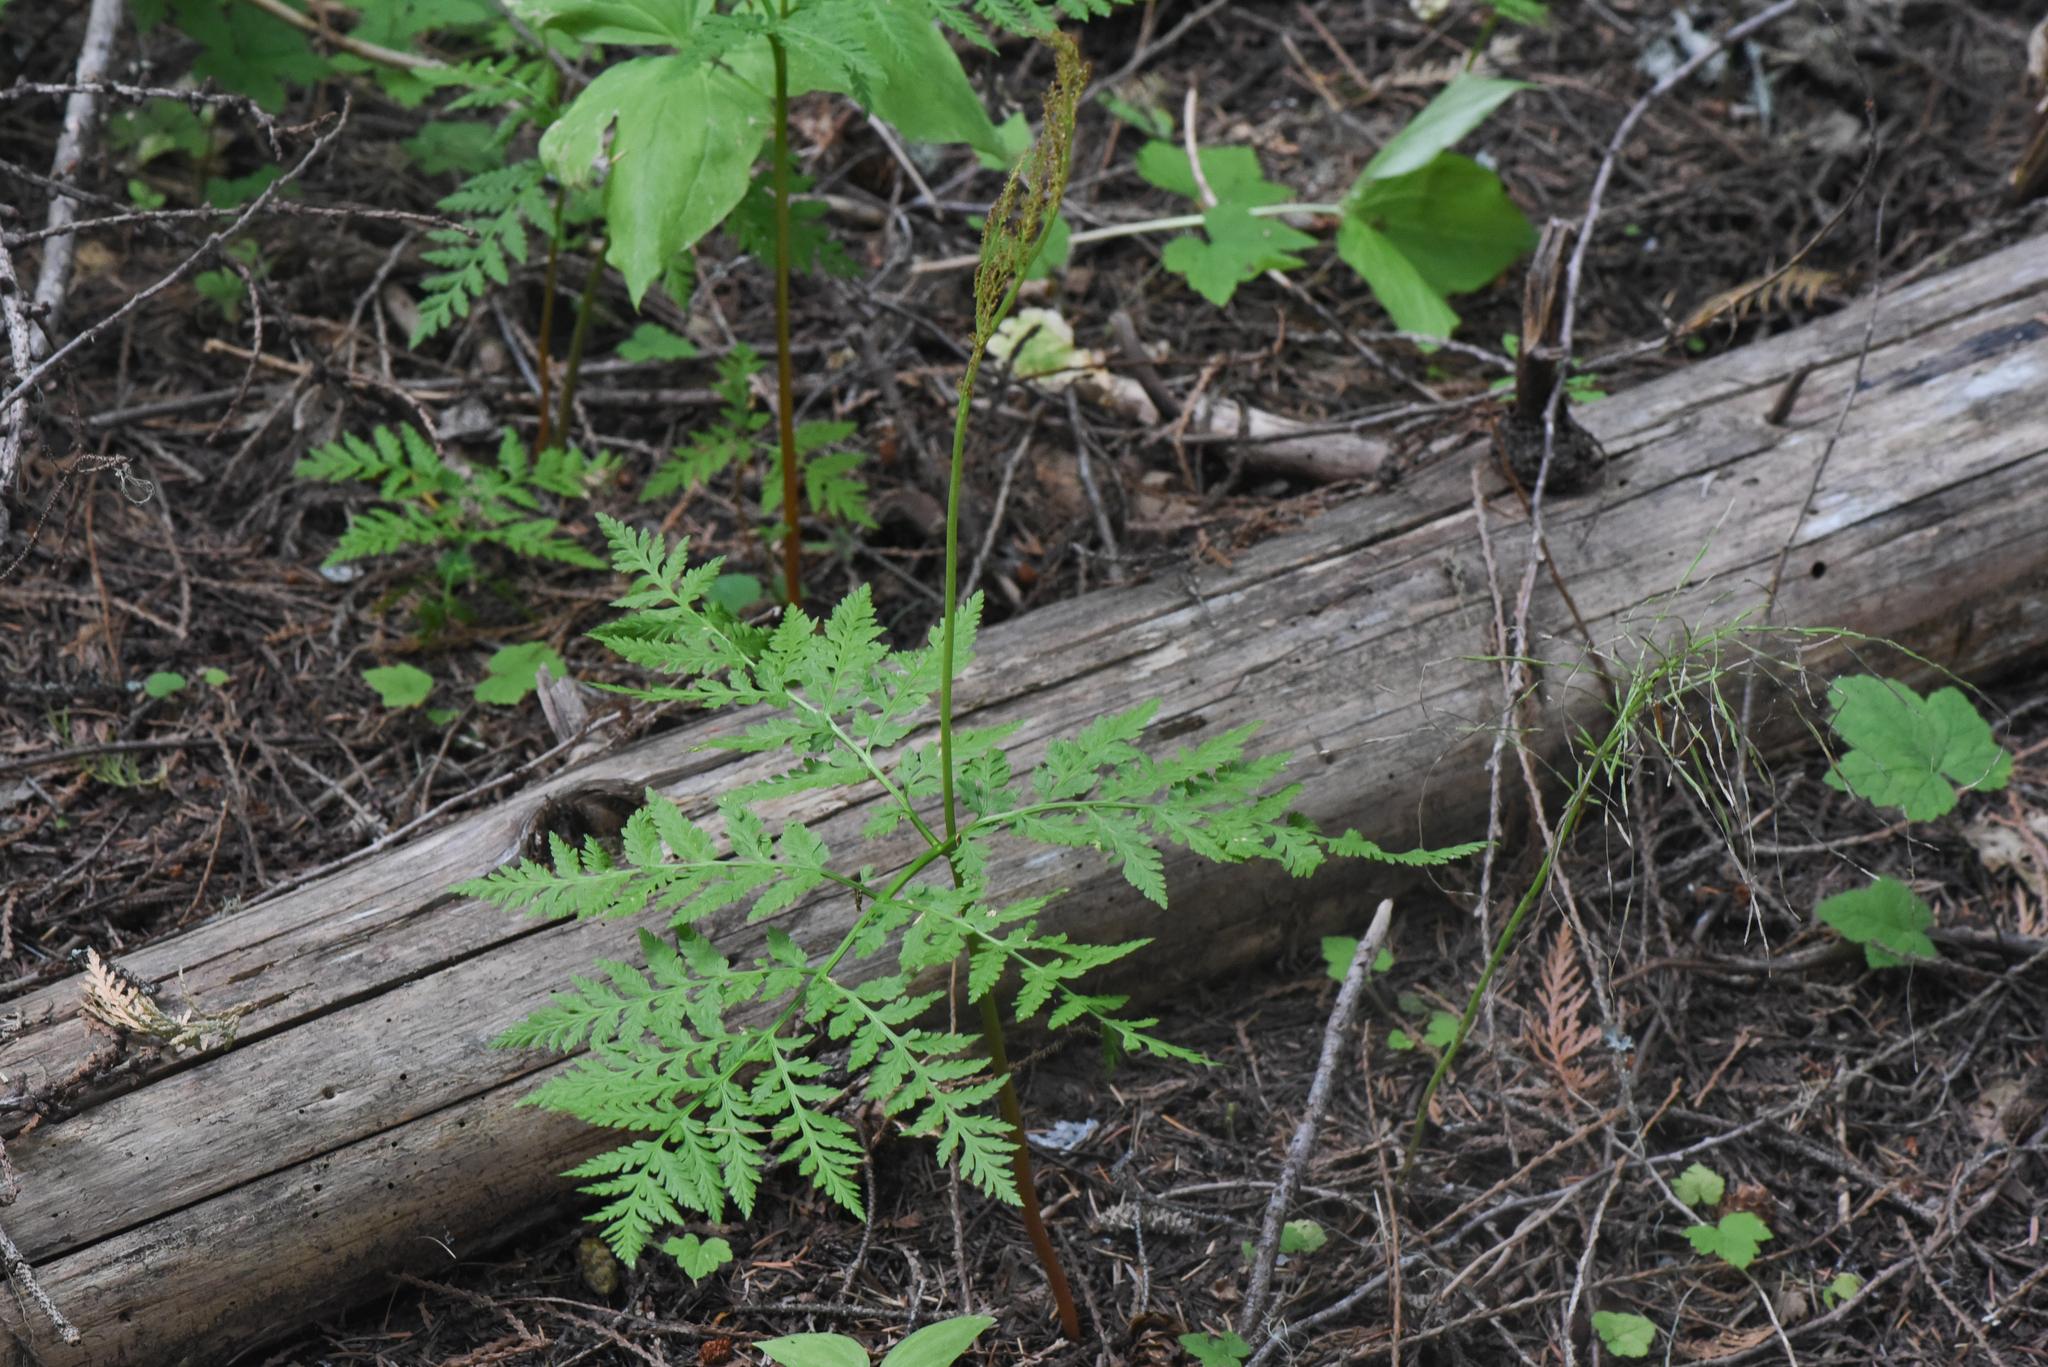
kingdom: Plantae
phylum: Tracheophyta
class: Polypodiopsida
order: Ophioglossales
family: Ophioglossaceae
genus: Botrypus
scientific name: Botrypus virginianus
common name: Common grapefern
